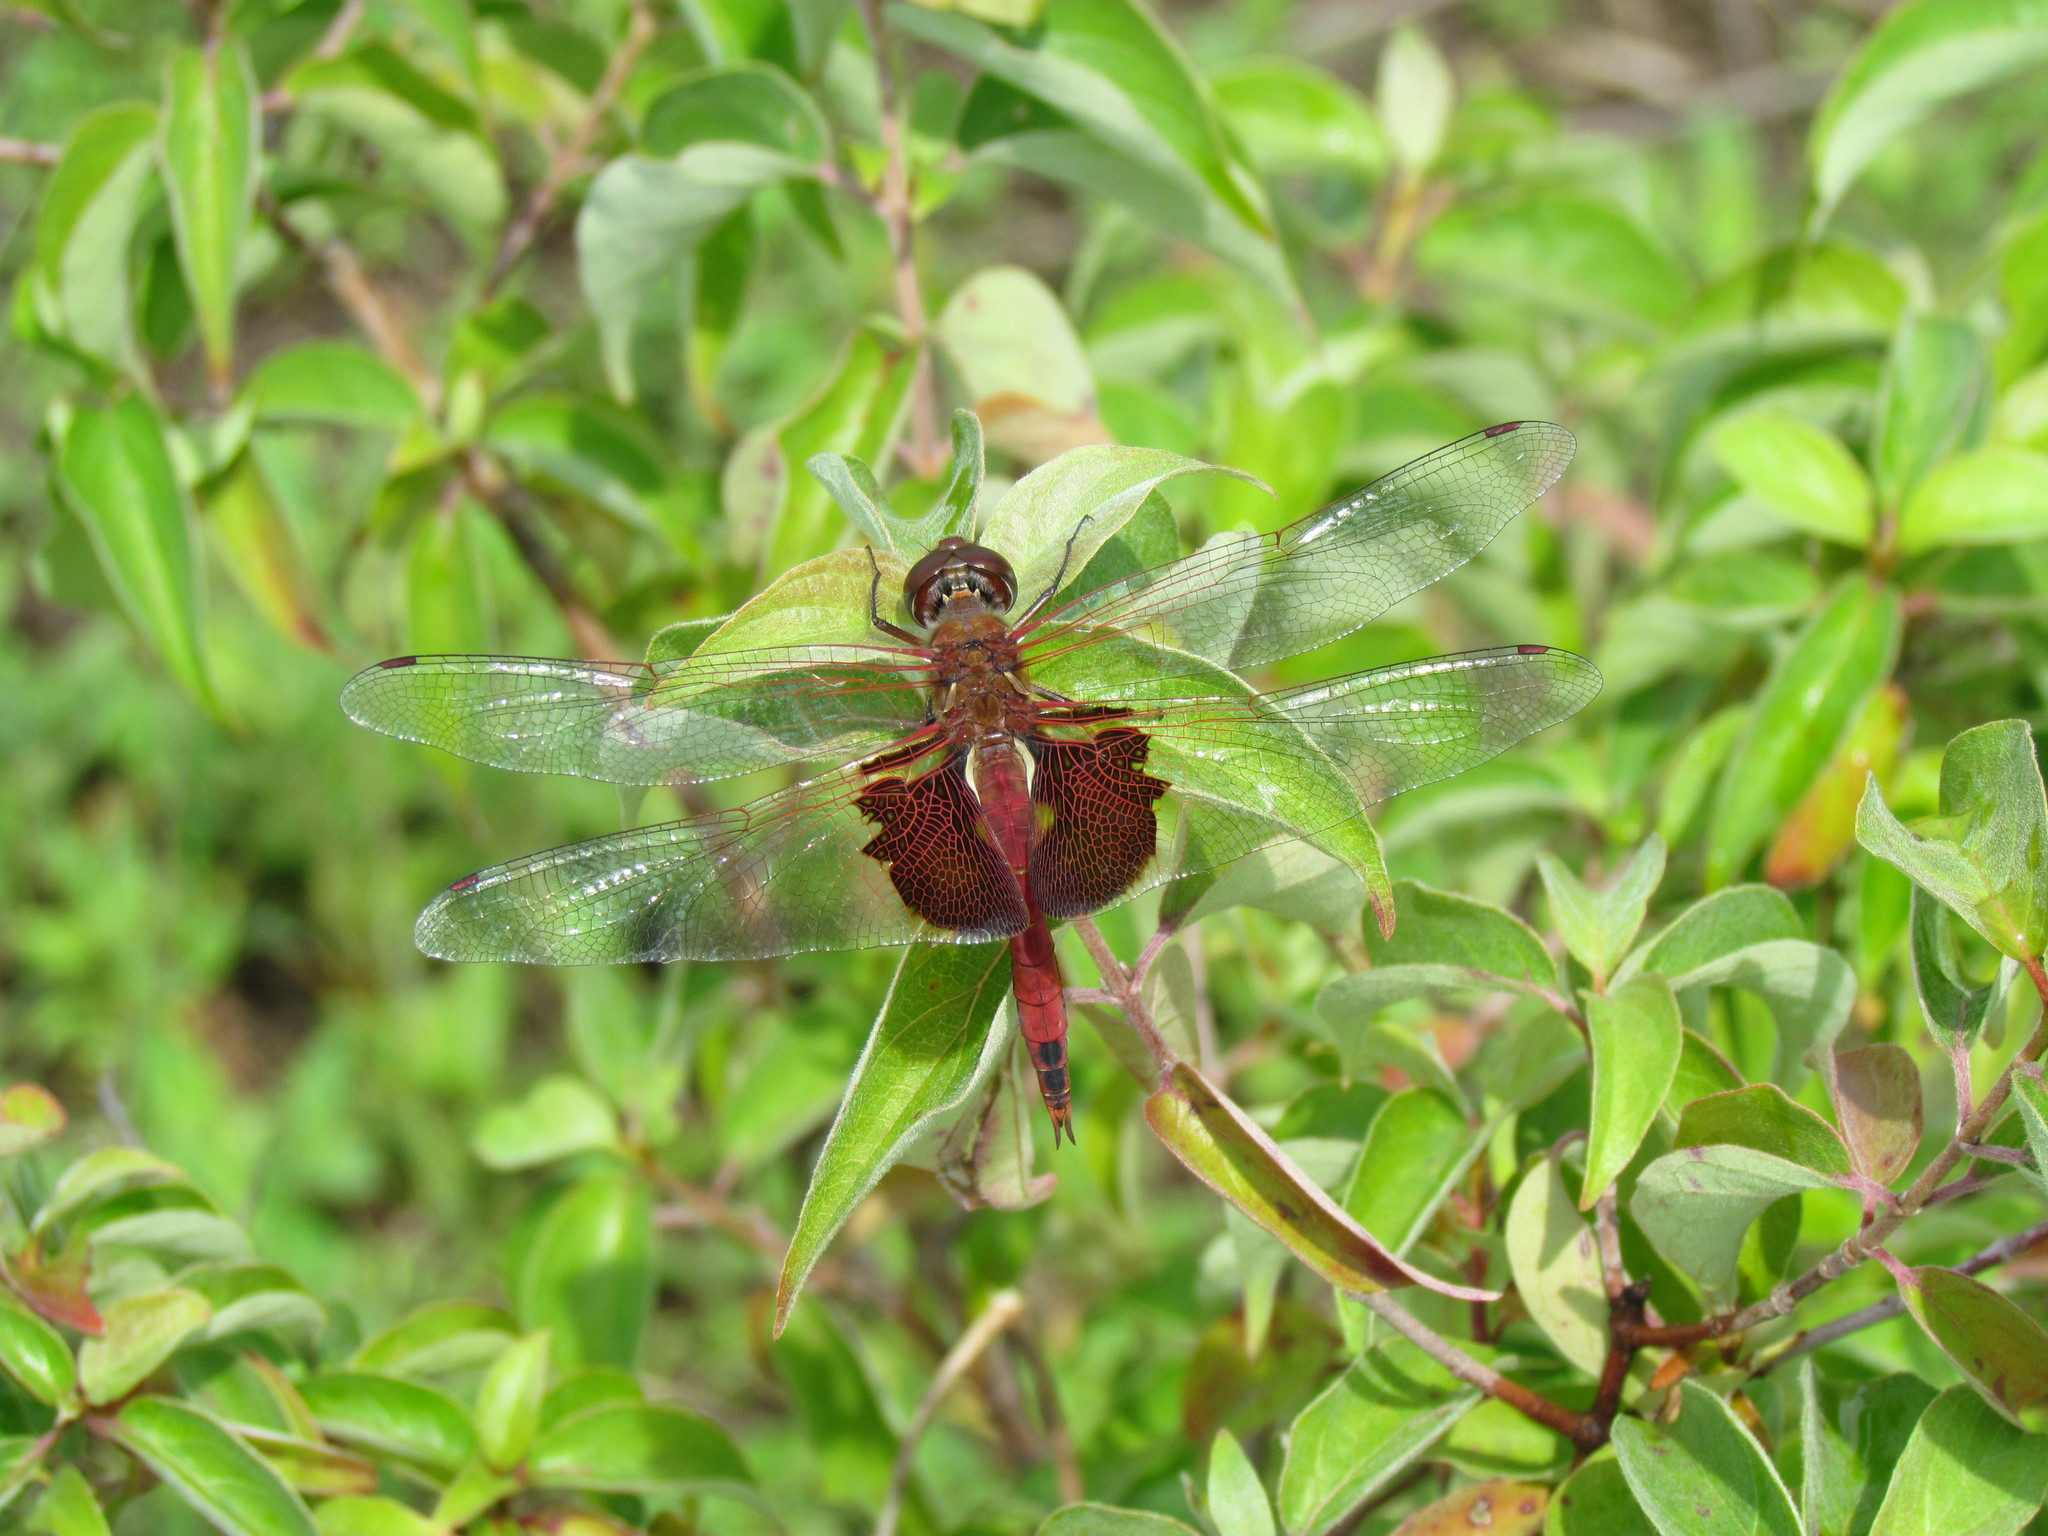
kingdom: Animalia
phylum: Arthropoda
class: Insecta
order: Odonata
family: Libellulidae
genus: Tramea
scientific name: Tramea onusta
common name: Red saddlebags
